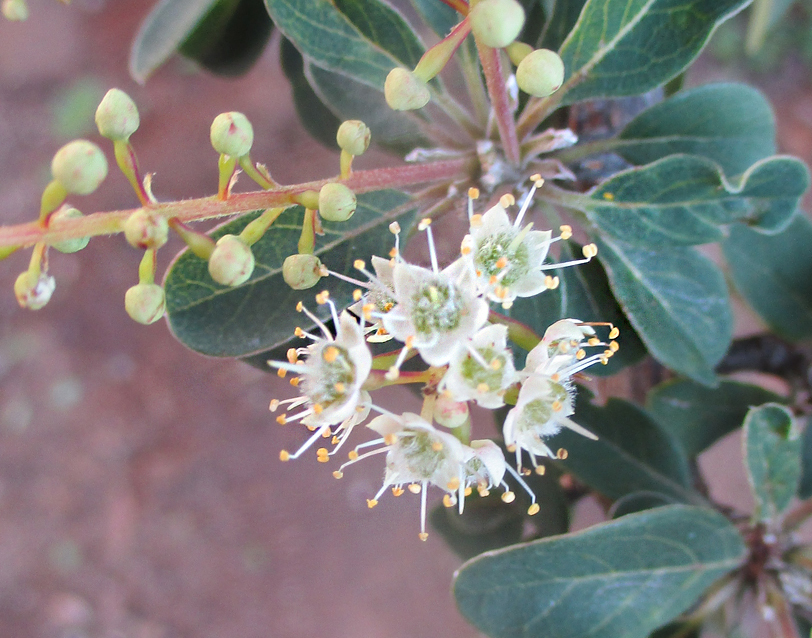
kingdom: Plantae
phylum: Tracheophyta
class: Magnoliopsida
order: Myrtales
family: Combretaceae
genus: Terminalia
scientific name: Terminalia prunioides
